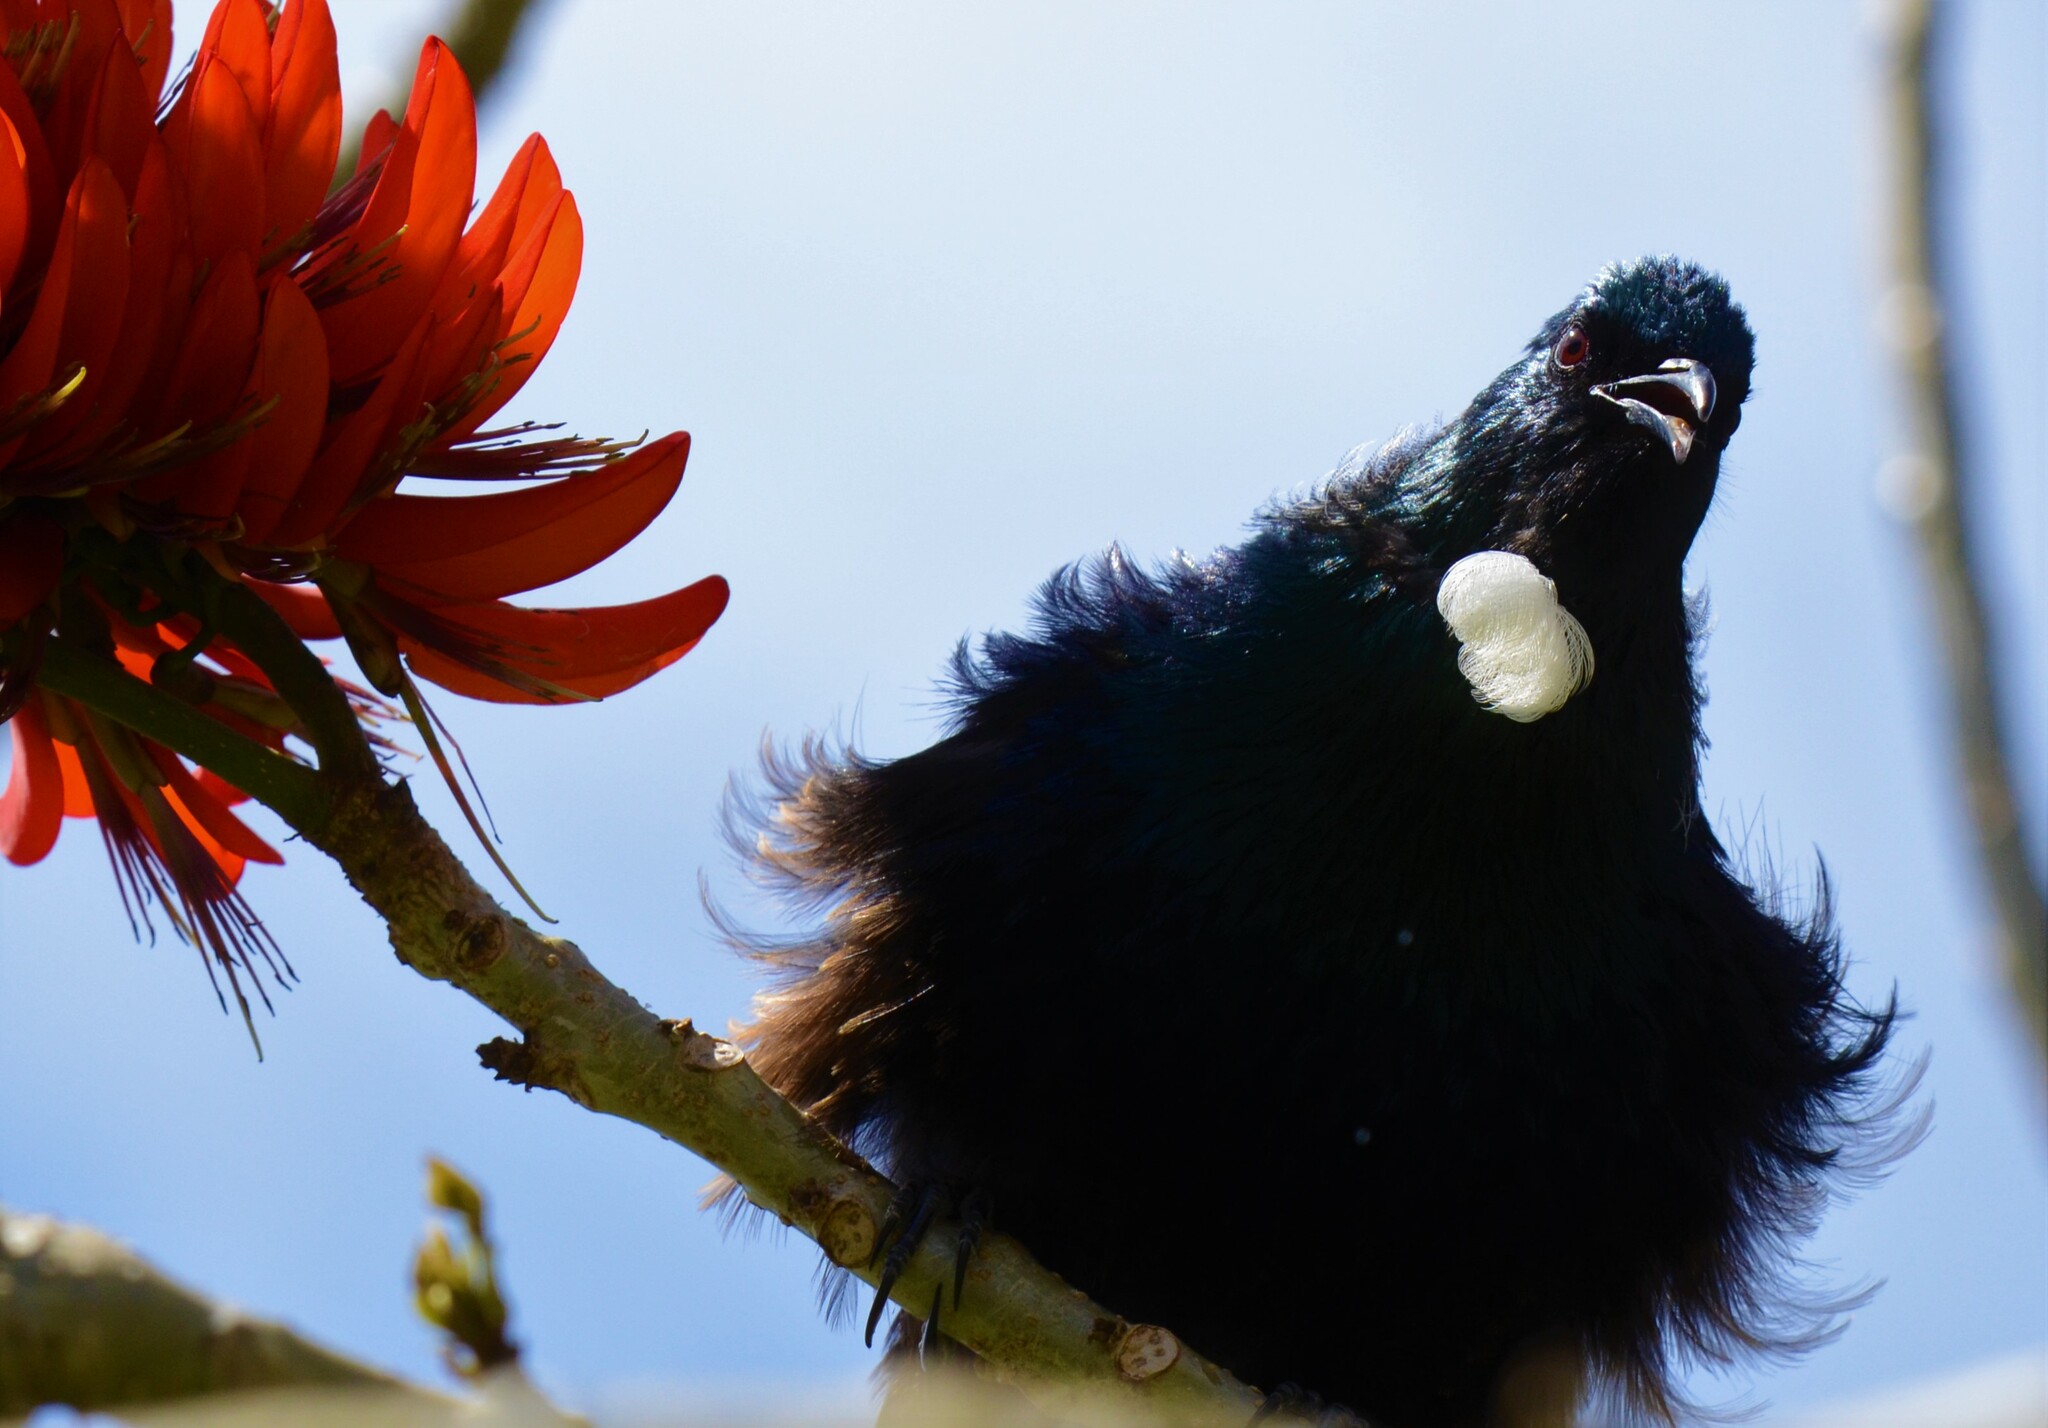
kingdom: Animalia
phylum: Chordata
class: Aves
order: Passeriformes
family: Meliphagidae
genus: Prosthemadera
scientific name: Prosthemadera novaeseelandiae
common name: Tui
